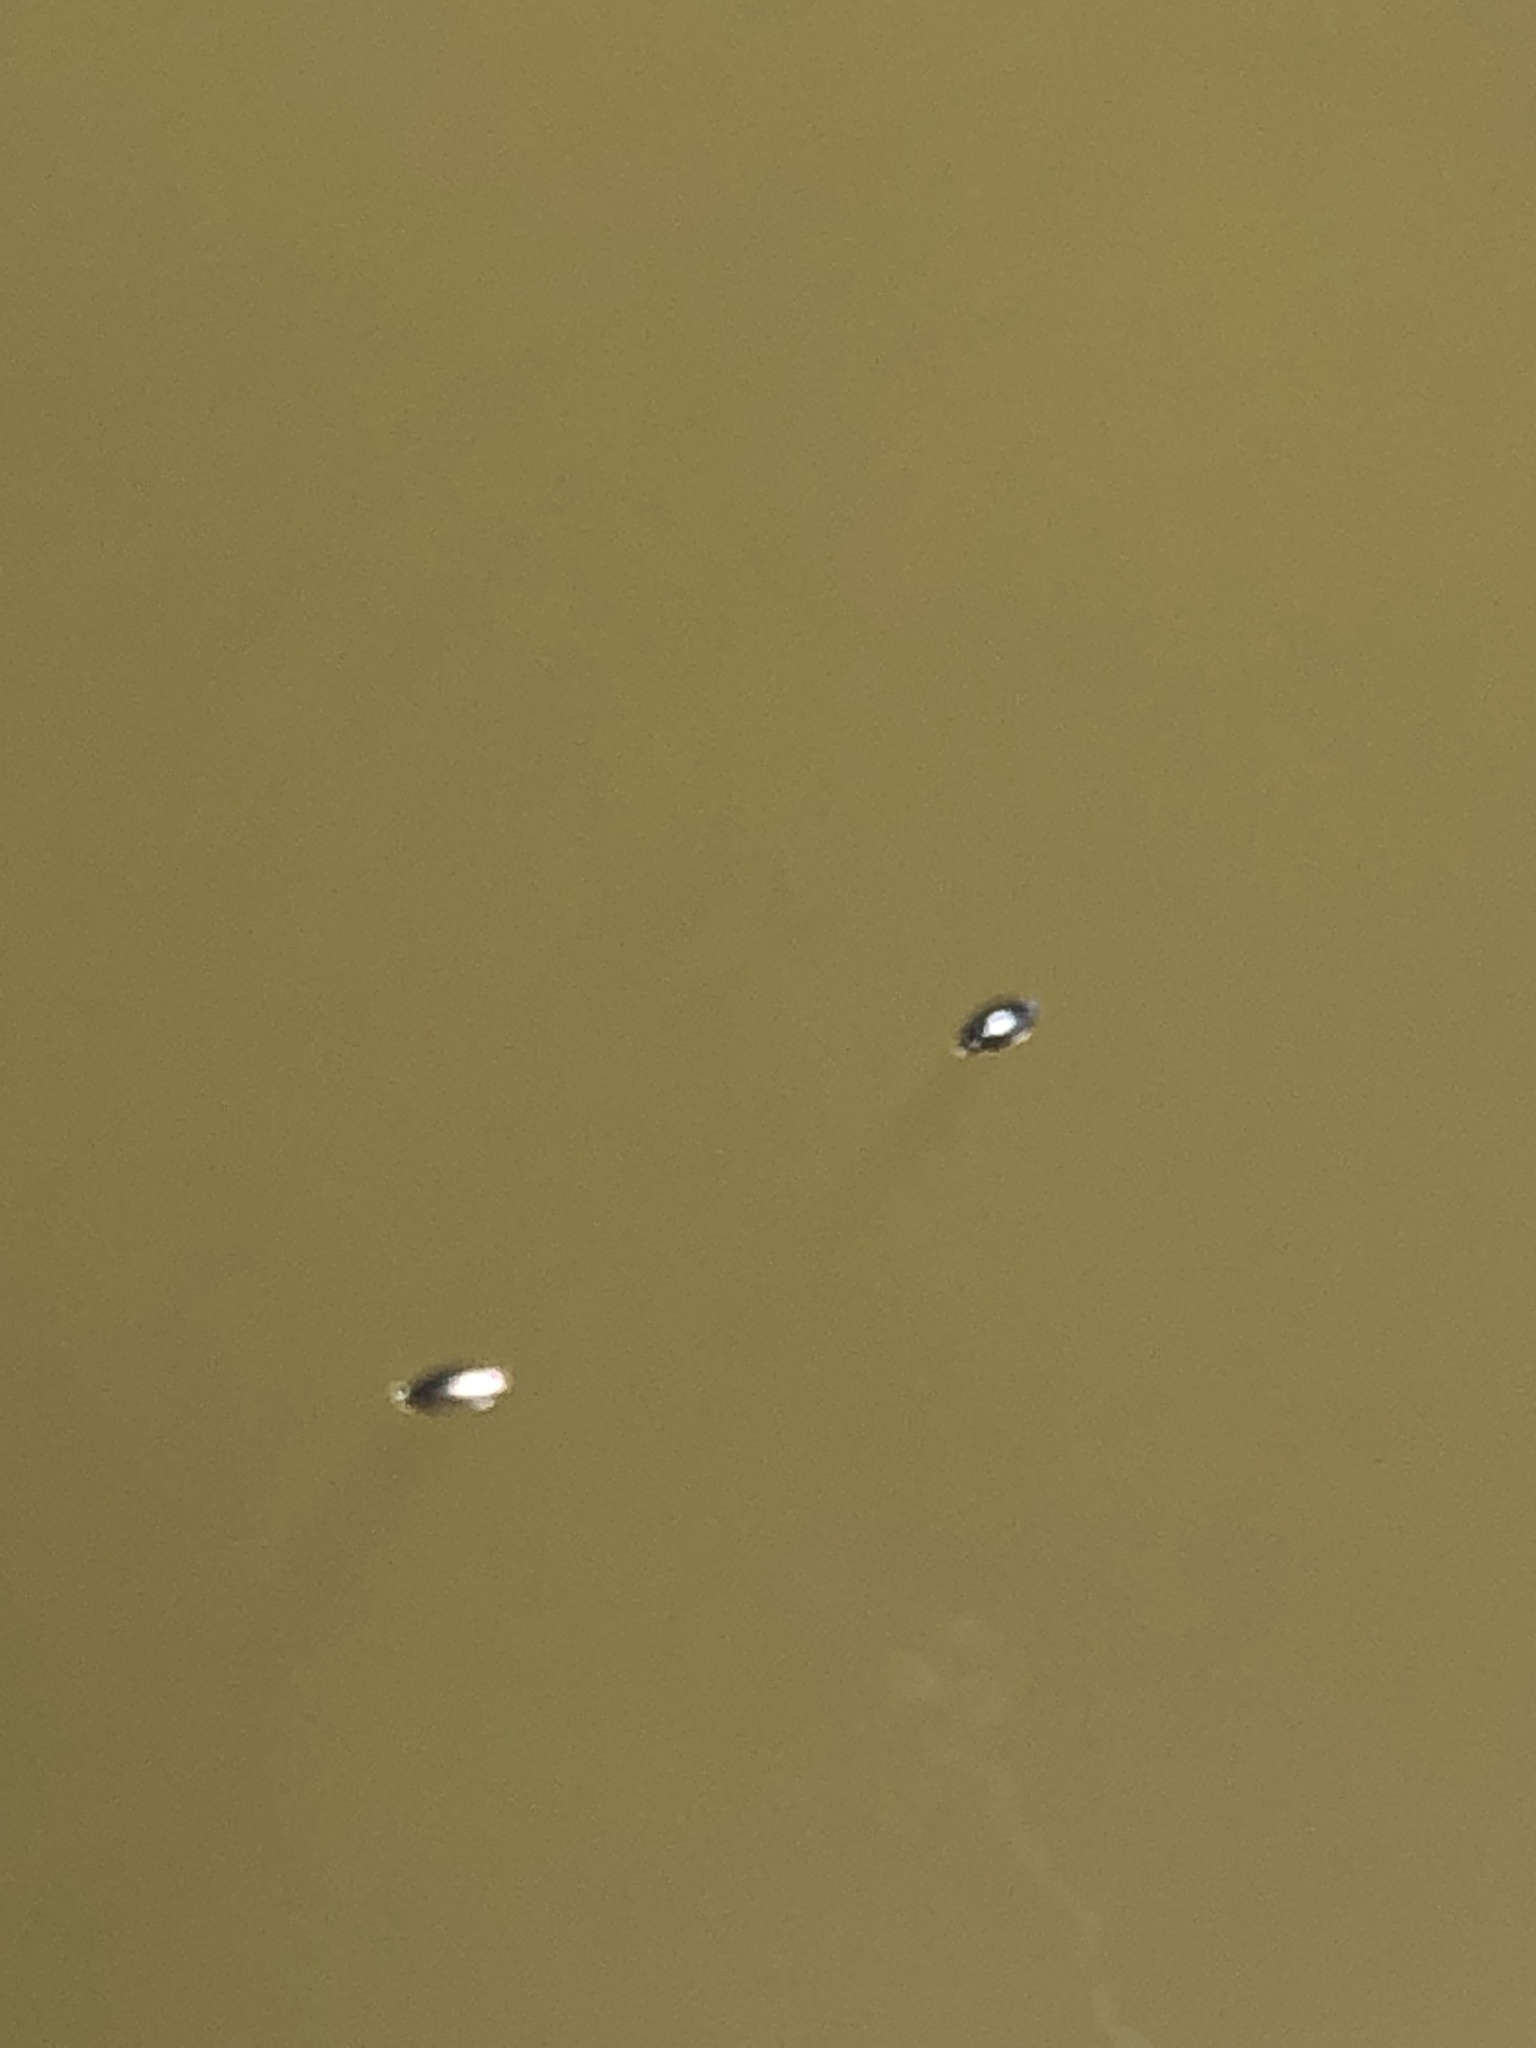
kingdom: Animalia
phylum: Arthropoda
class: Insecta
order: Coleoptera
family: Gyrinidae
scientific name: Gyrinidae
